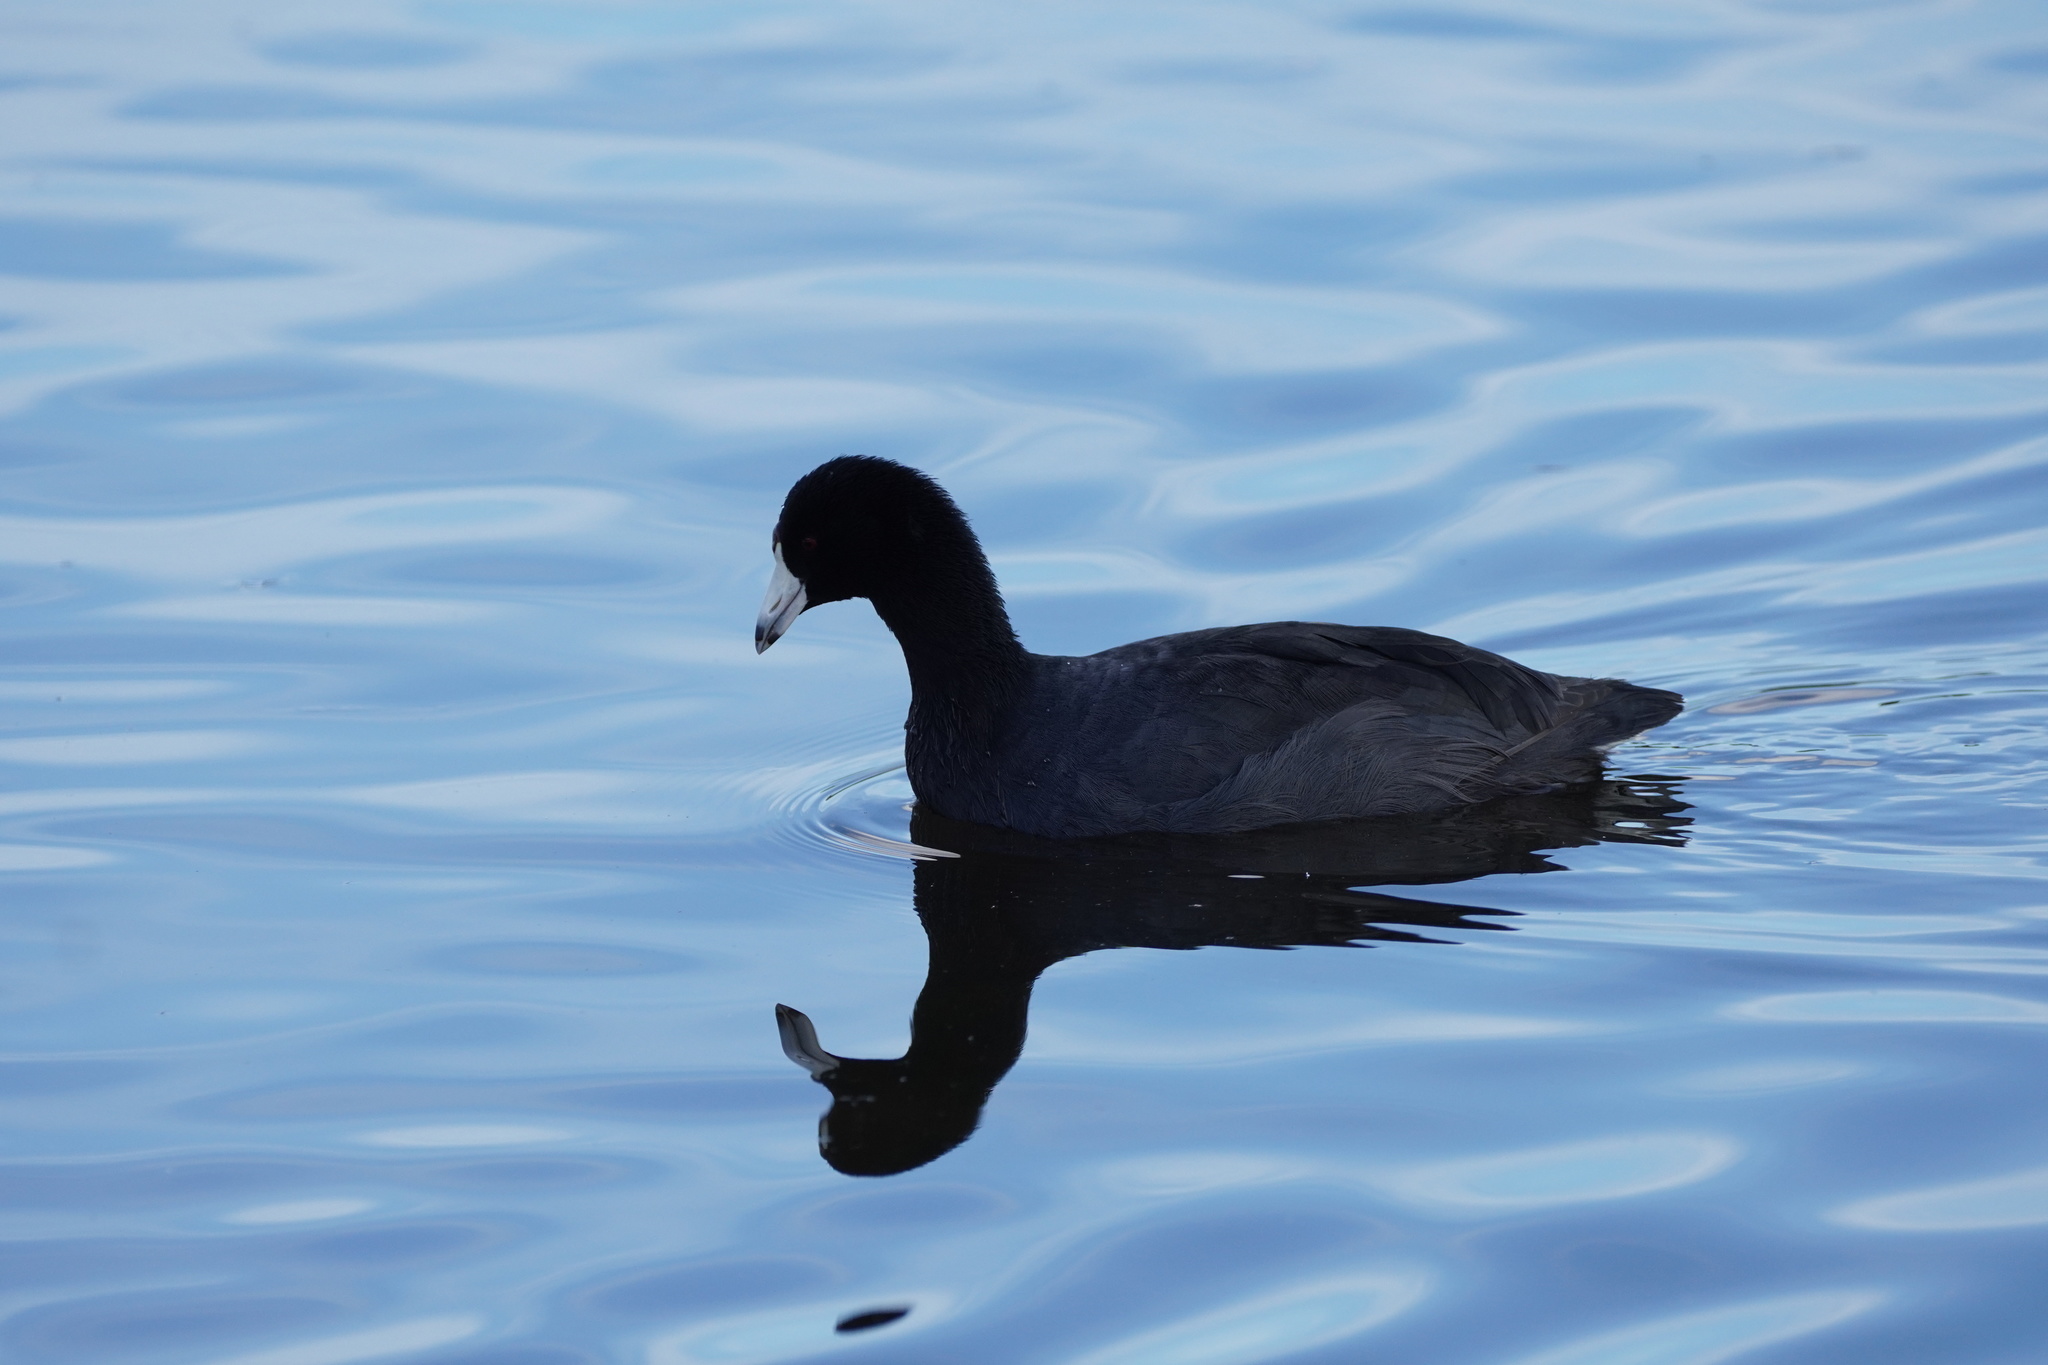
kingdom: Animalia
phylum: Chordata
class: Aves
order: Gruiformes
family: Rallidae
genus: Fulica
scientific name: Fulica americana
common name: American coot
